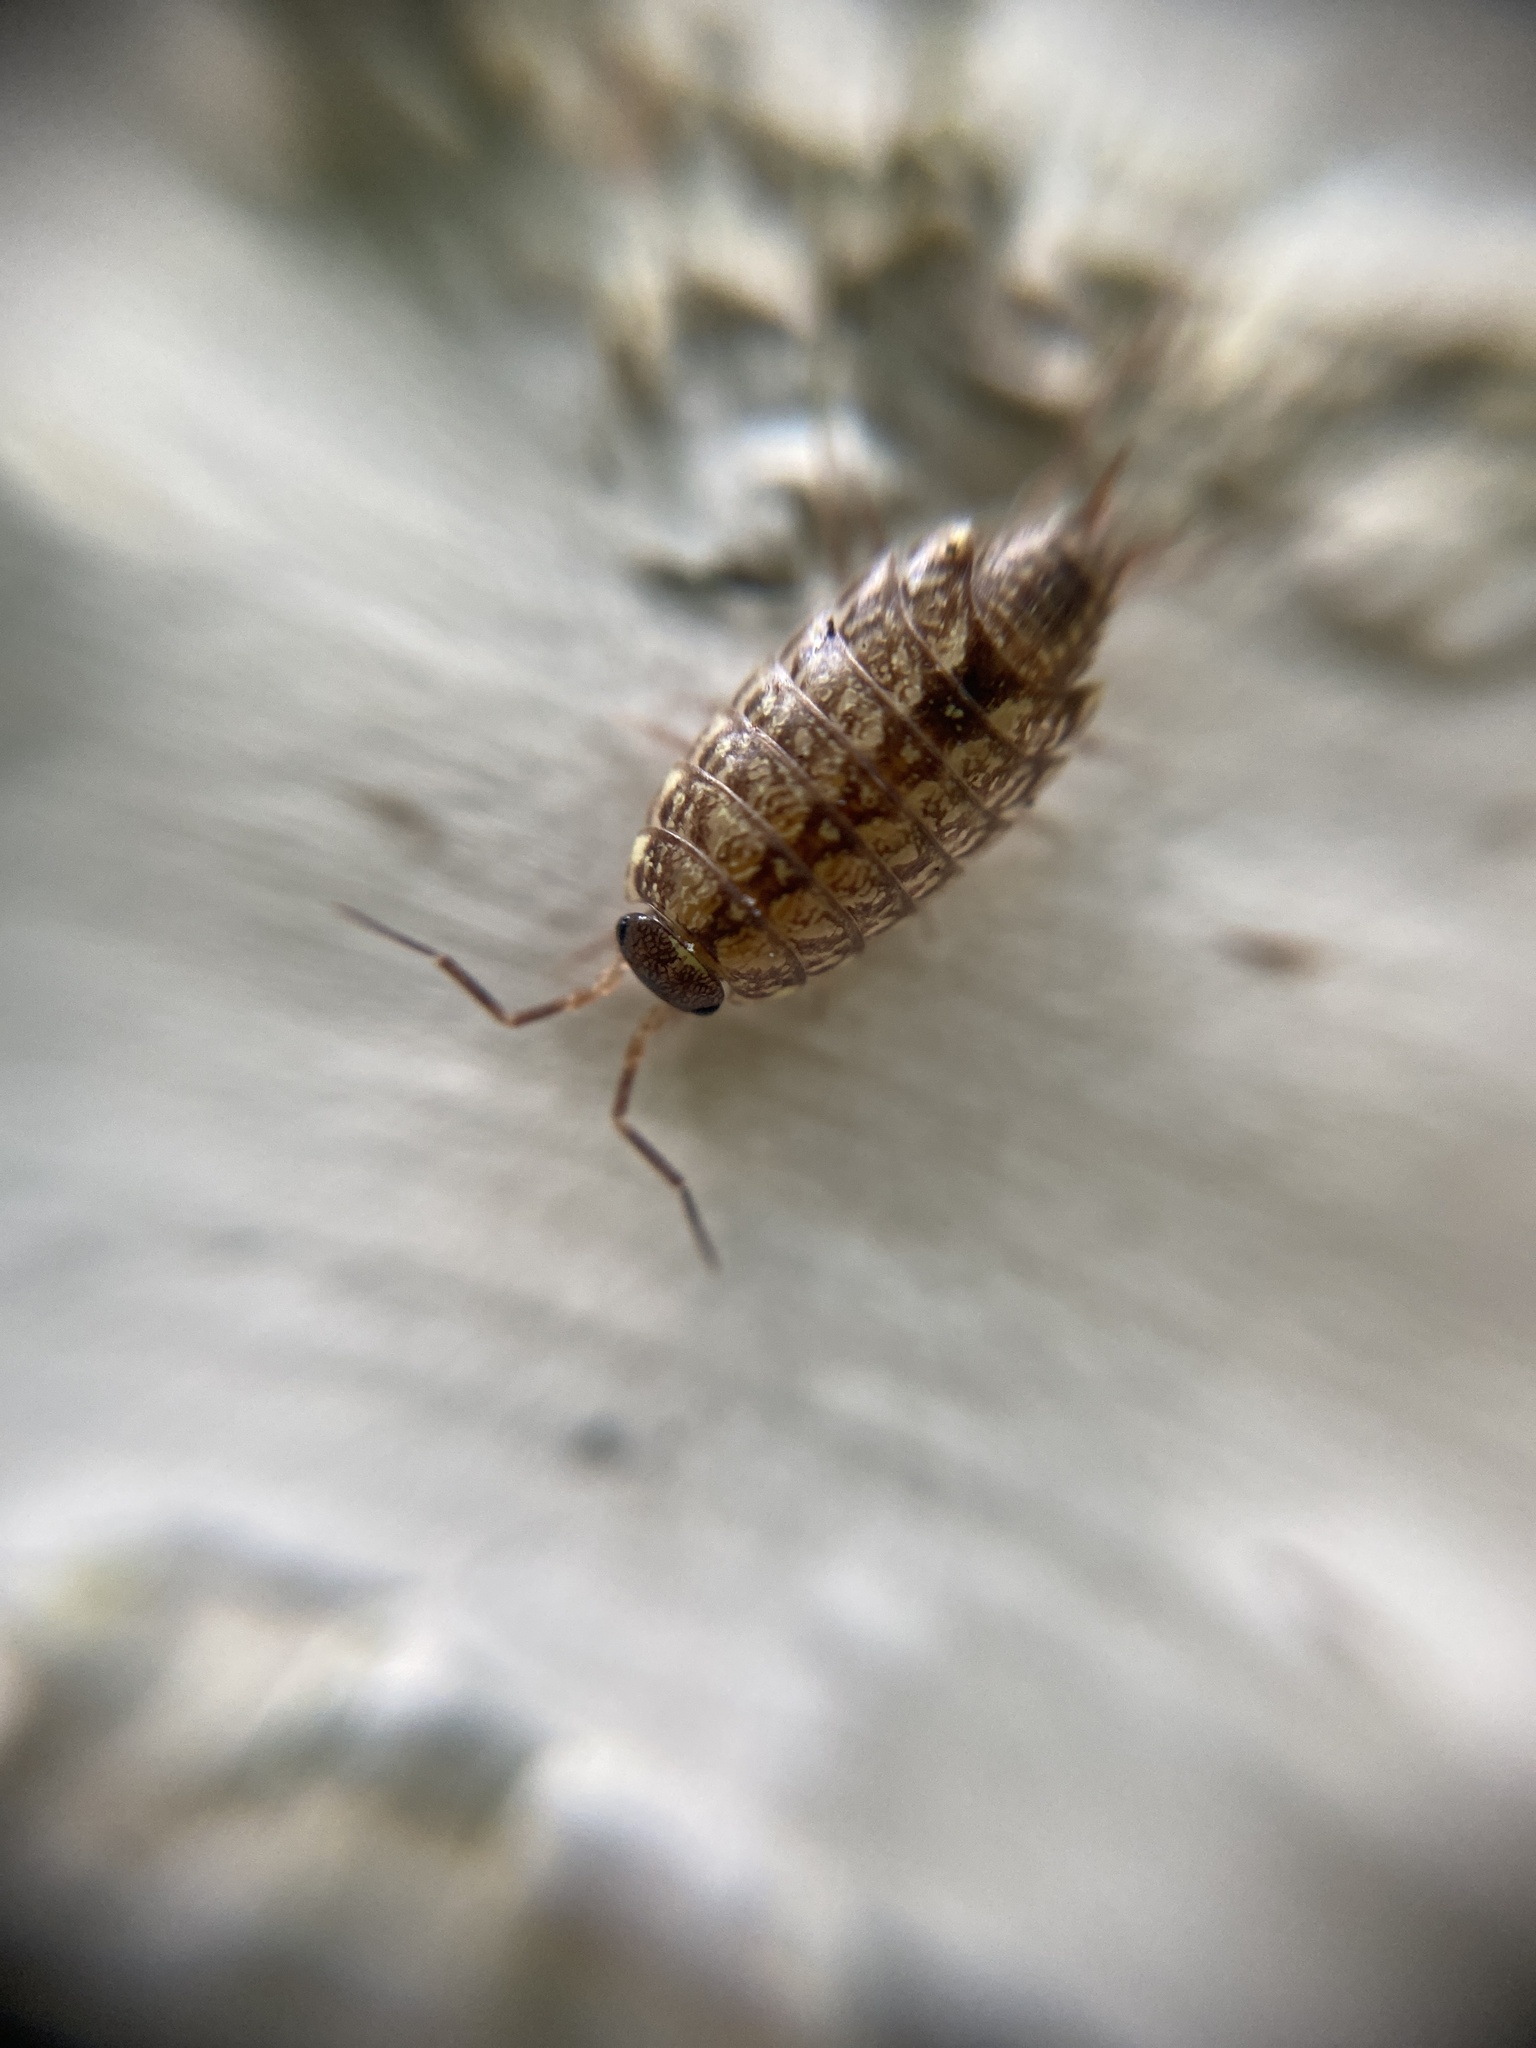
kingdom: Animalia
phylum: Arthropoda
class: Malacostraca
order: Isopoda
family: Philosciidae
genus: Philoscia
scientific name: Philoscia muscorum
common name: Common striped woodlouse
